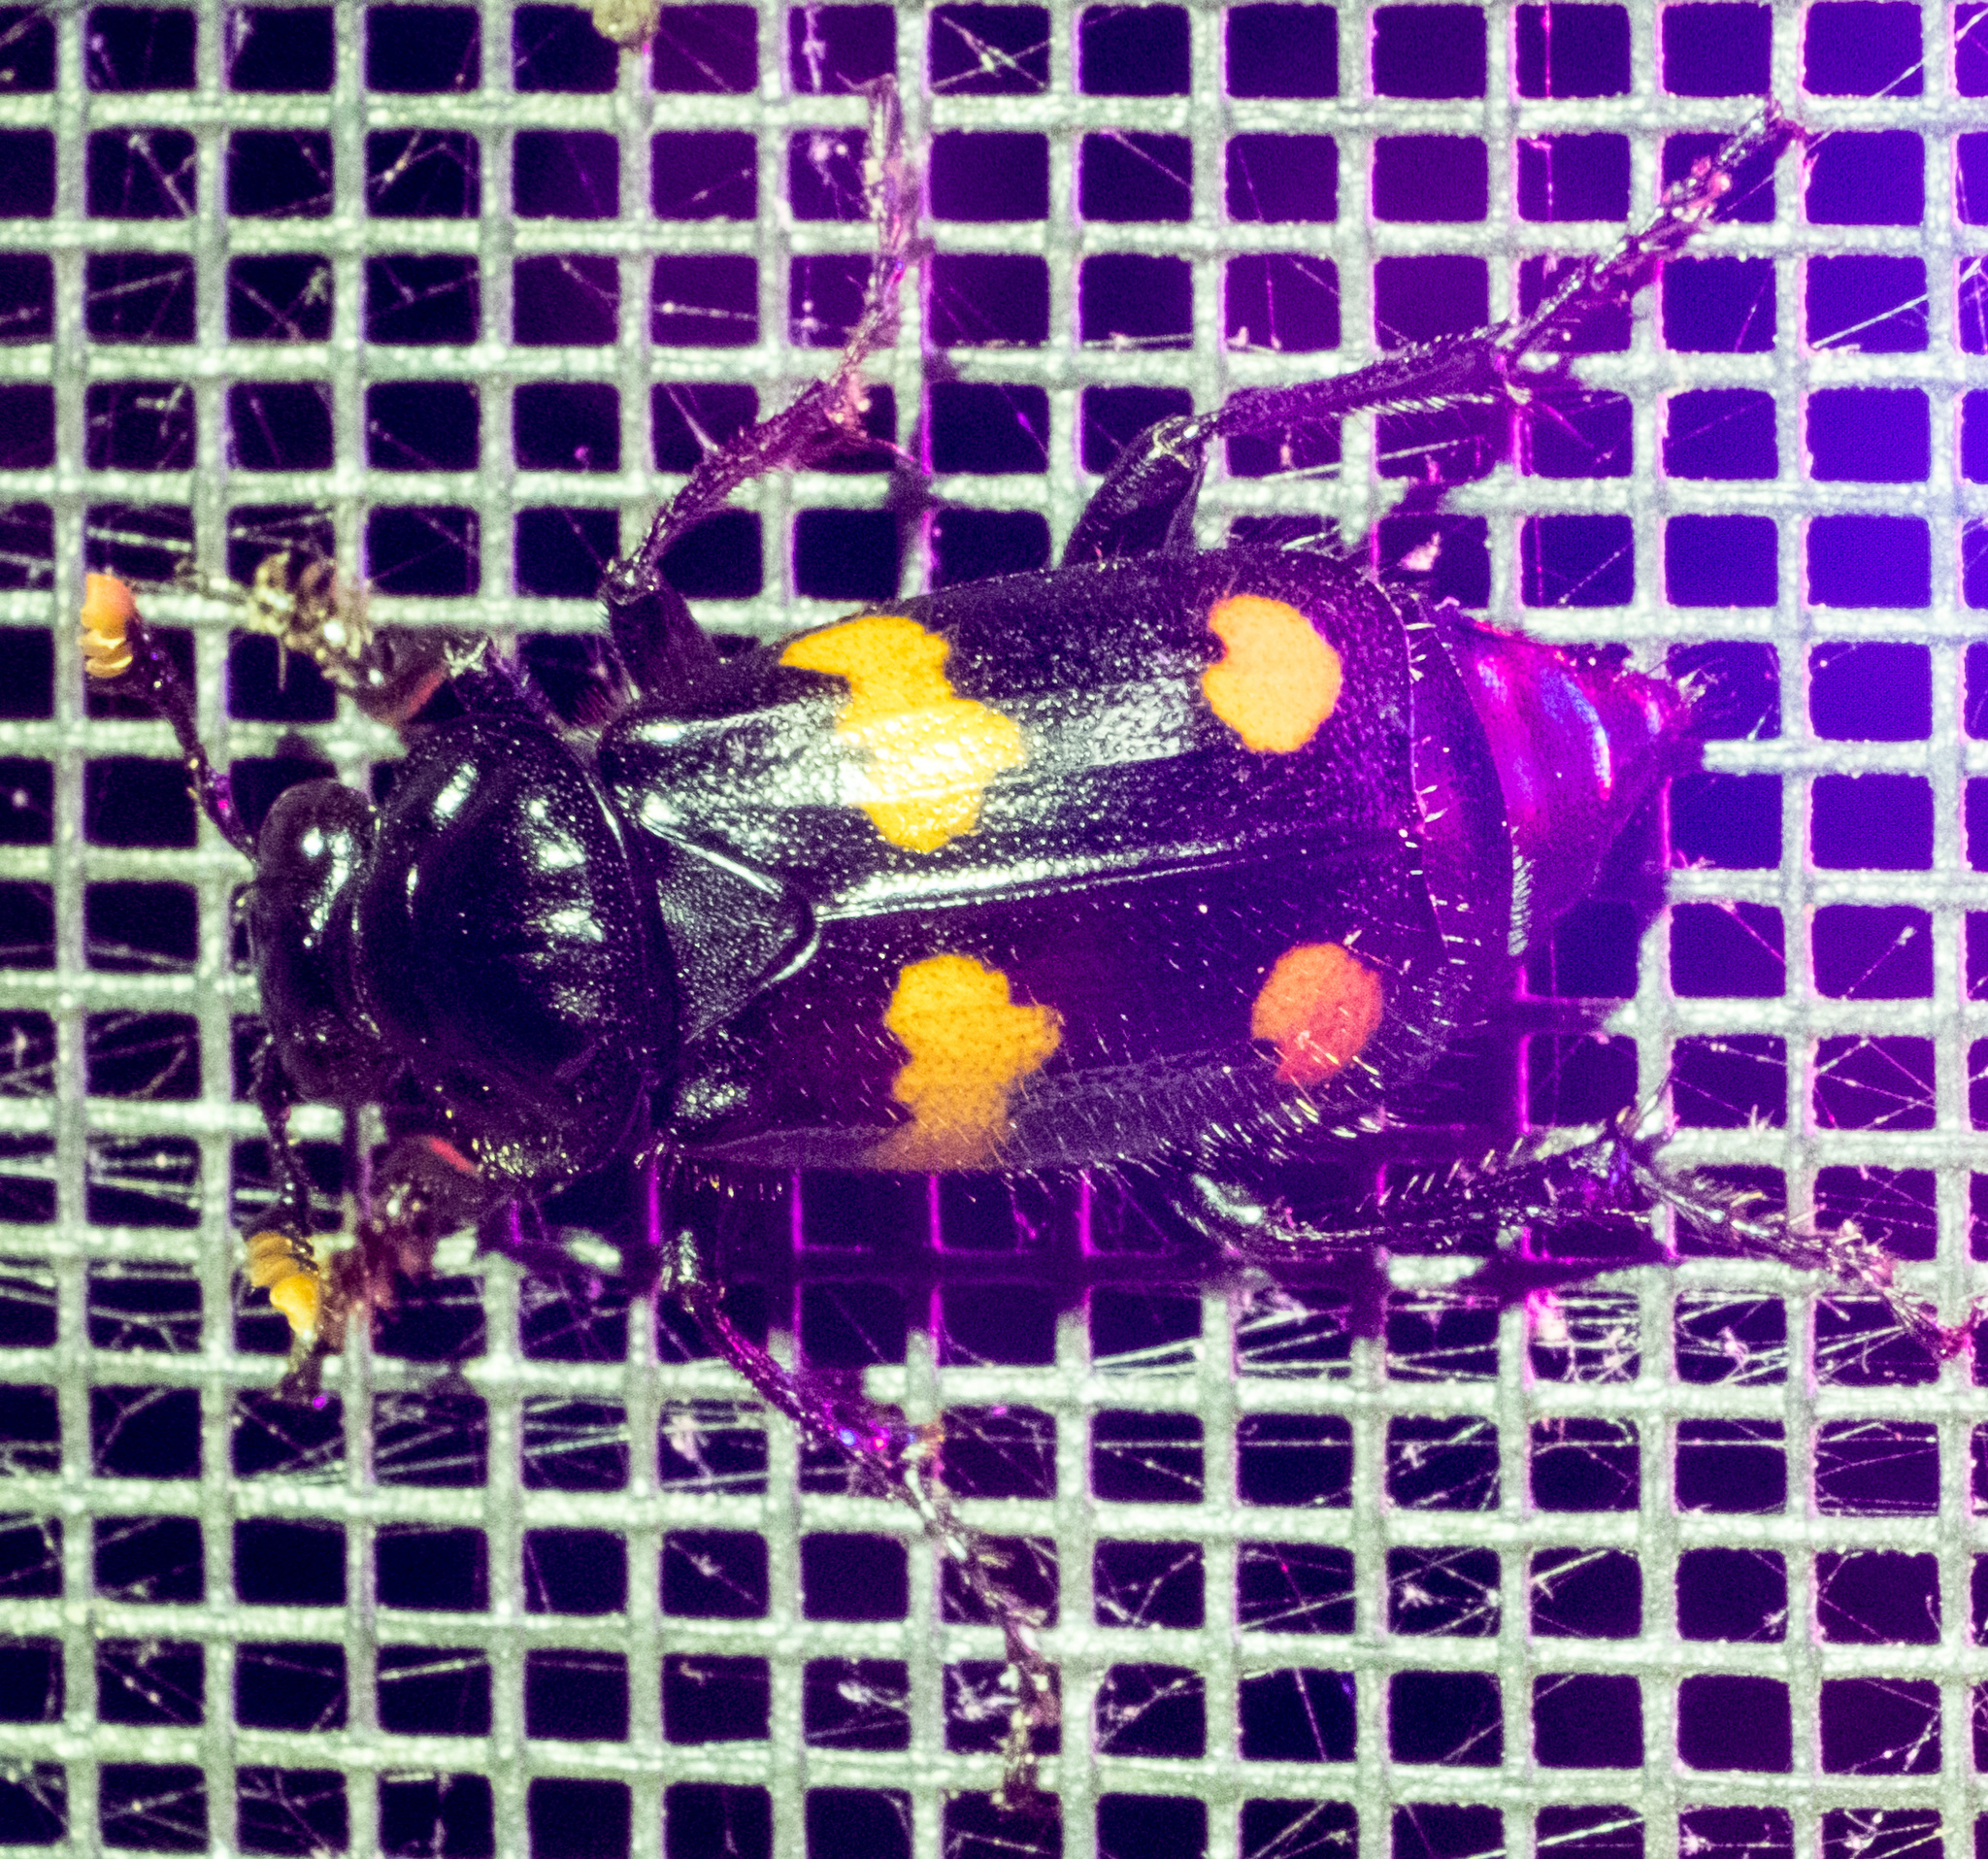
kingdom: Animalia
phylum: Arthropoda
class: Insecta
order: Coleoptera
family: Staphylinidae
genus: Nicrophorus
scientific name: Nicrophorus orbicollis
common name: Roundneck sexton beetle
